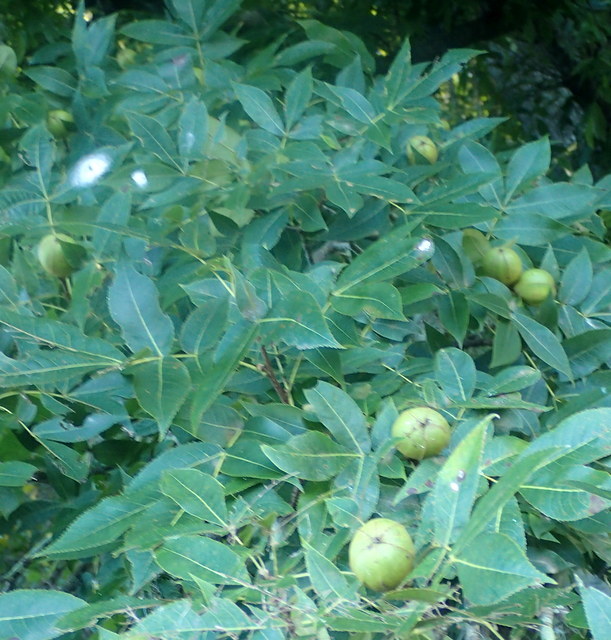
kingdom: Plantae
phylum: Tracheophyta
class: Magnoliopsida
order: Fagales
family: Juglandaceae
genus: Carya
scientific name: Carya glabra
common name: Pignut hickory
